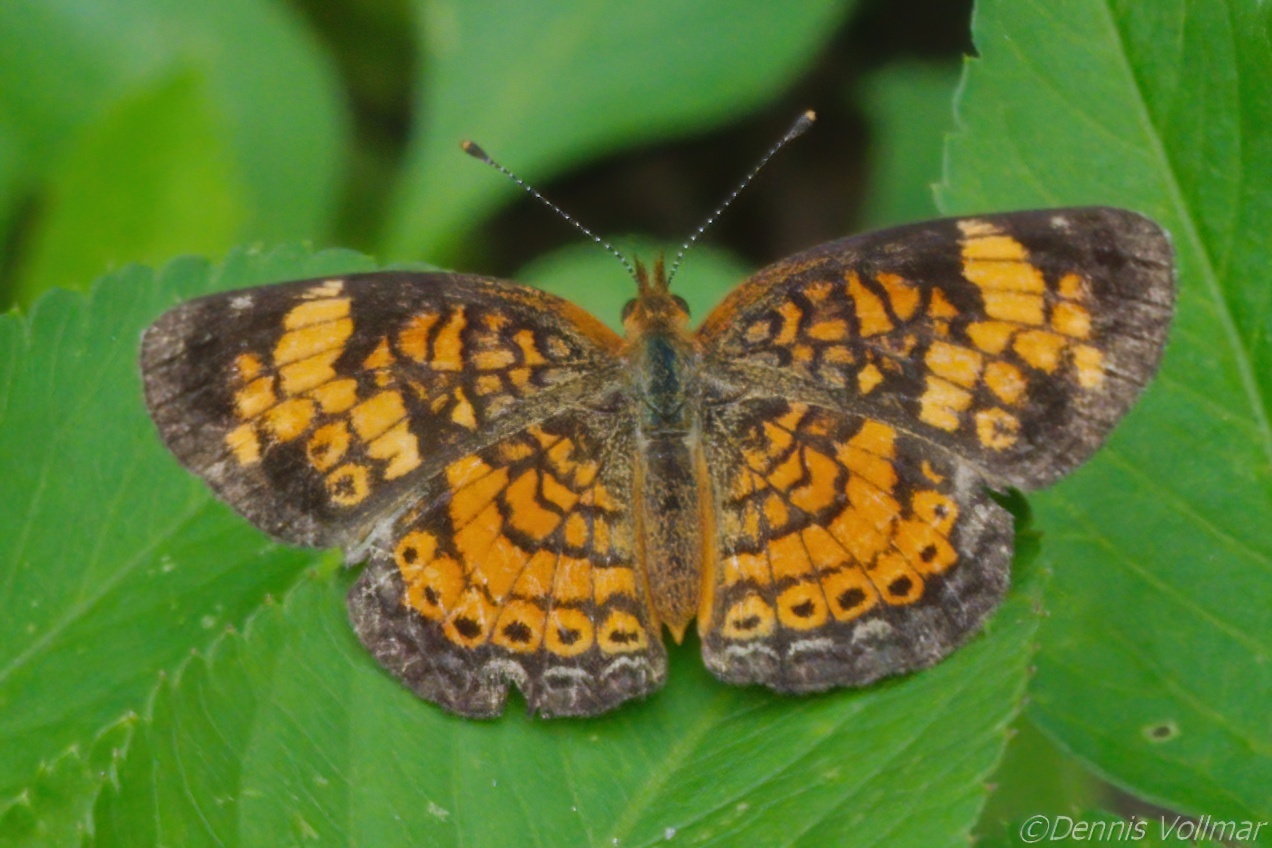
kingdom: Animalia
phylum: Arthropoda
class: Insecta
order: Lepidoptera
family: Nymphalidae
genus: Phyciodes
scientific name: Phyciodes tharos
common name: Pearl crescent
